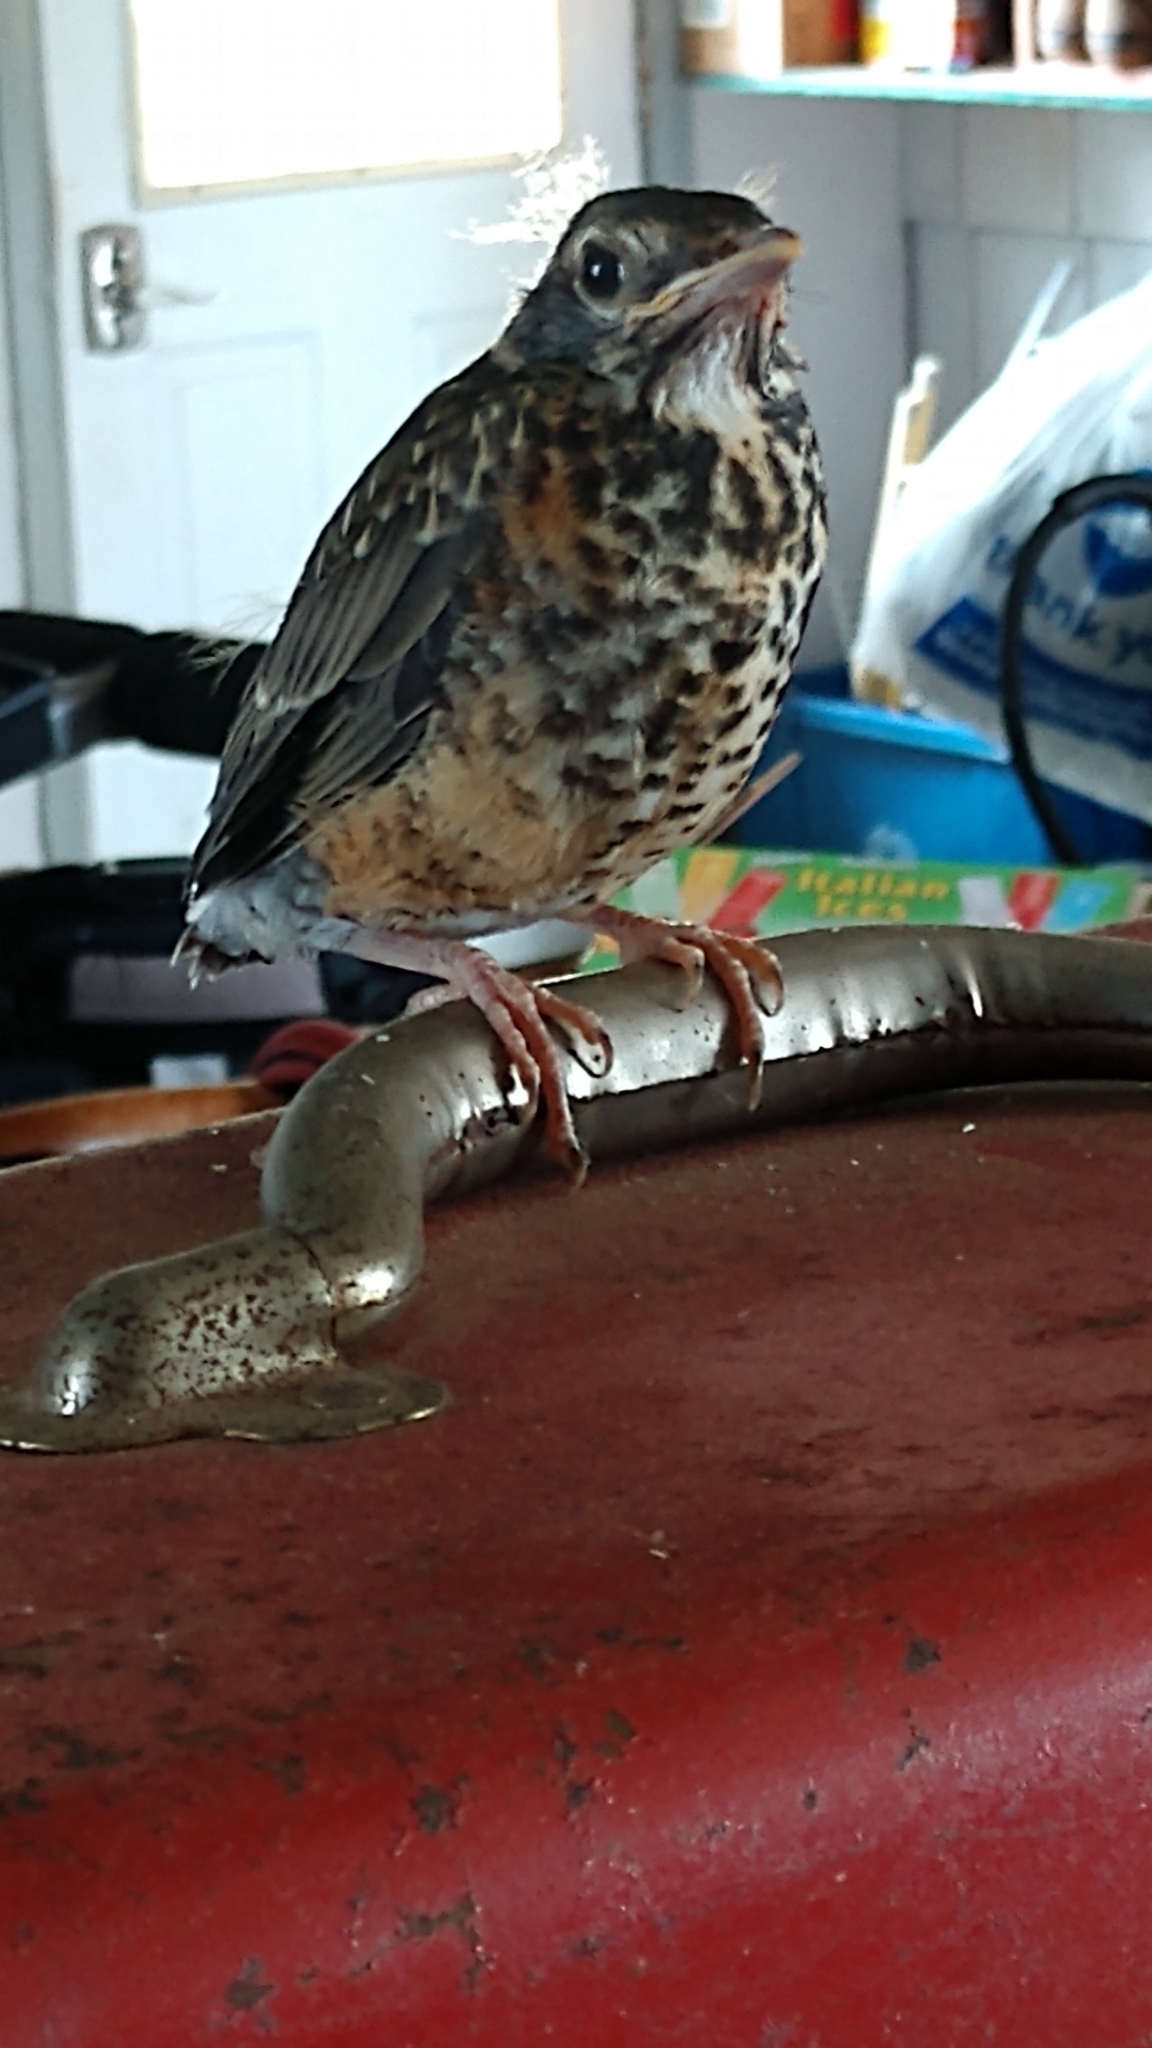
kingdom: Animalia
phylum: Chordata
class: Aves
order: Passeriformes
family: Turdidae
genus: Turdus
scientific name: Turdus migratorius
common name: American robin
